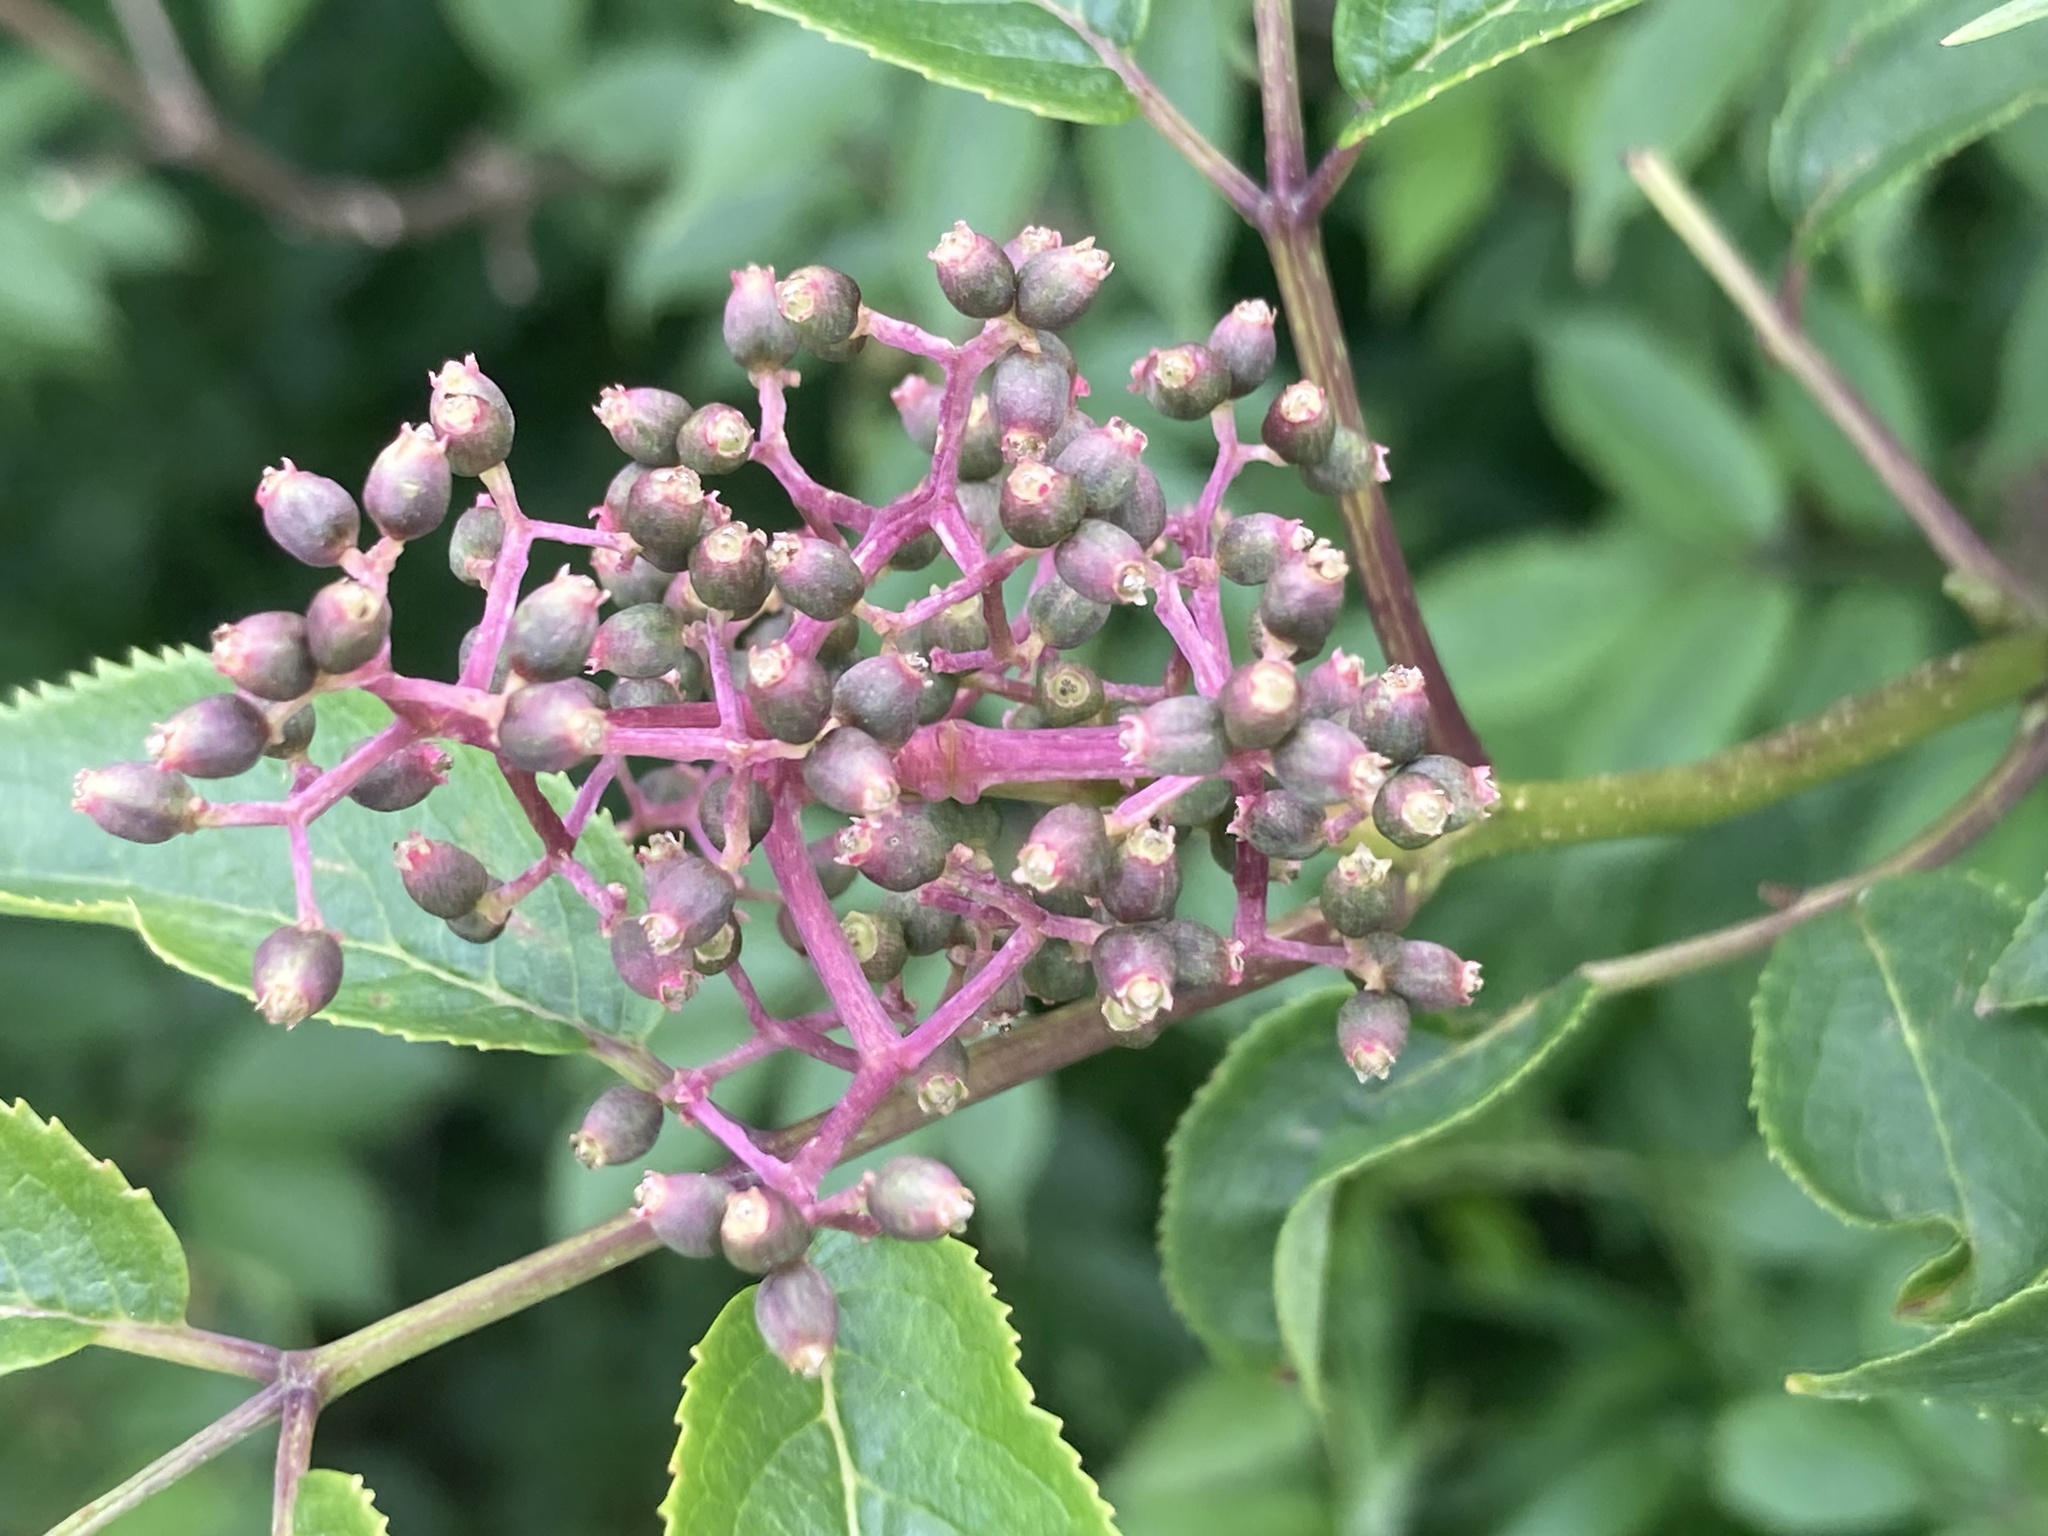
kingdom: Plantae
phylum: Tracheophyta
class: Magnoliopsida
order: Dipsacales
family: Viburnaceae
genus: Sambucus
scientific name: Sambucus racemosa
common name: Red-berried elder
